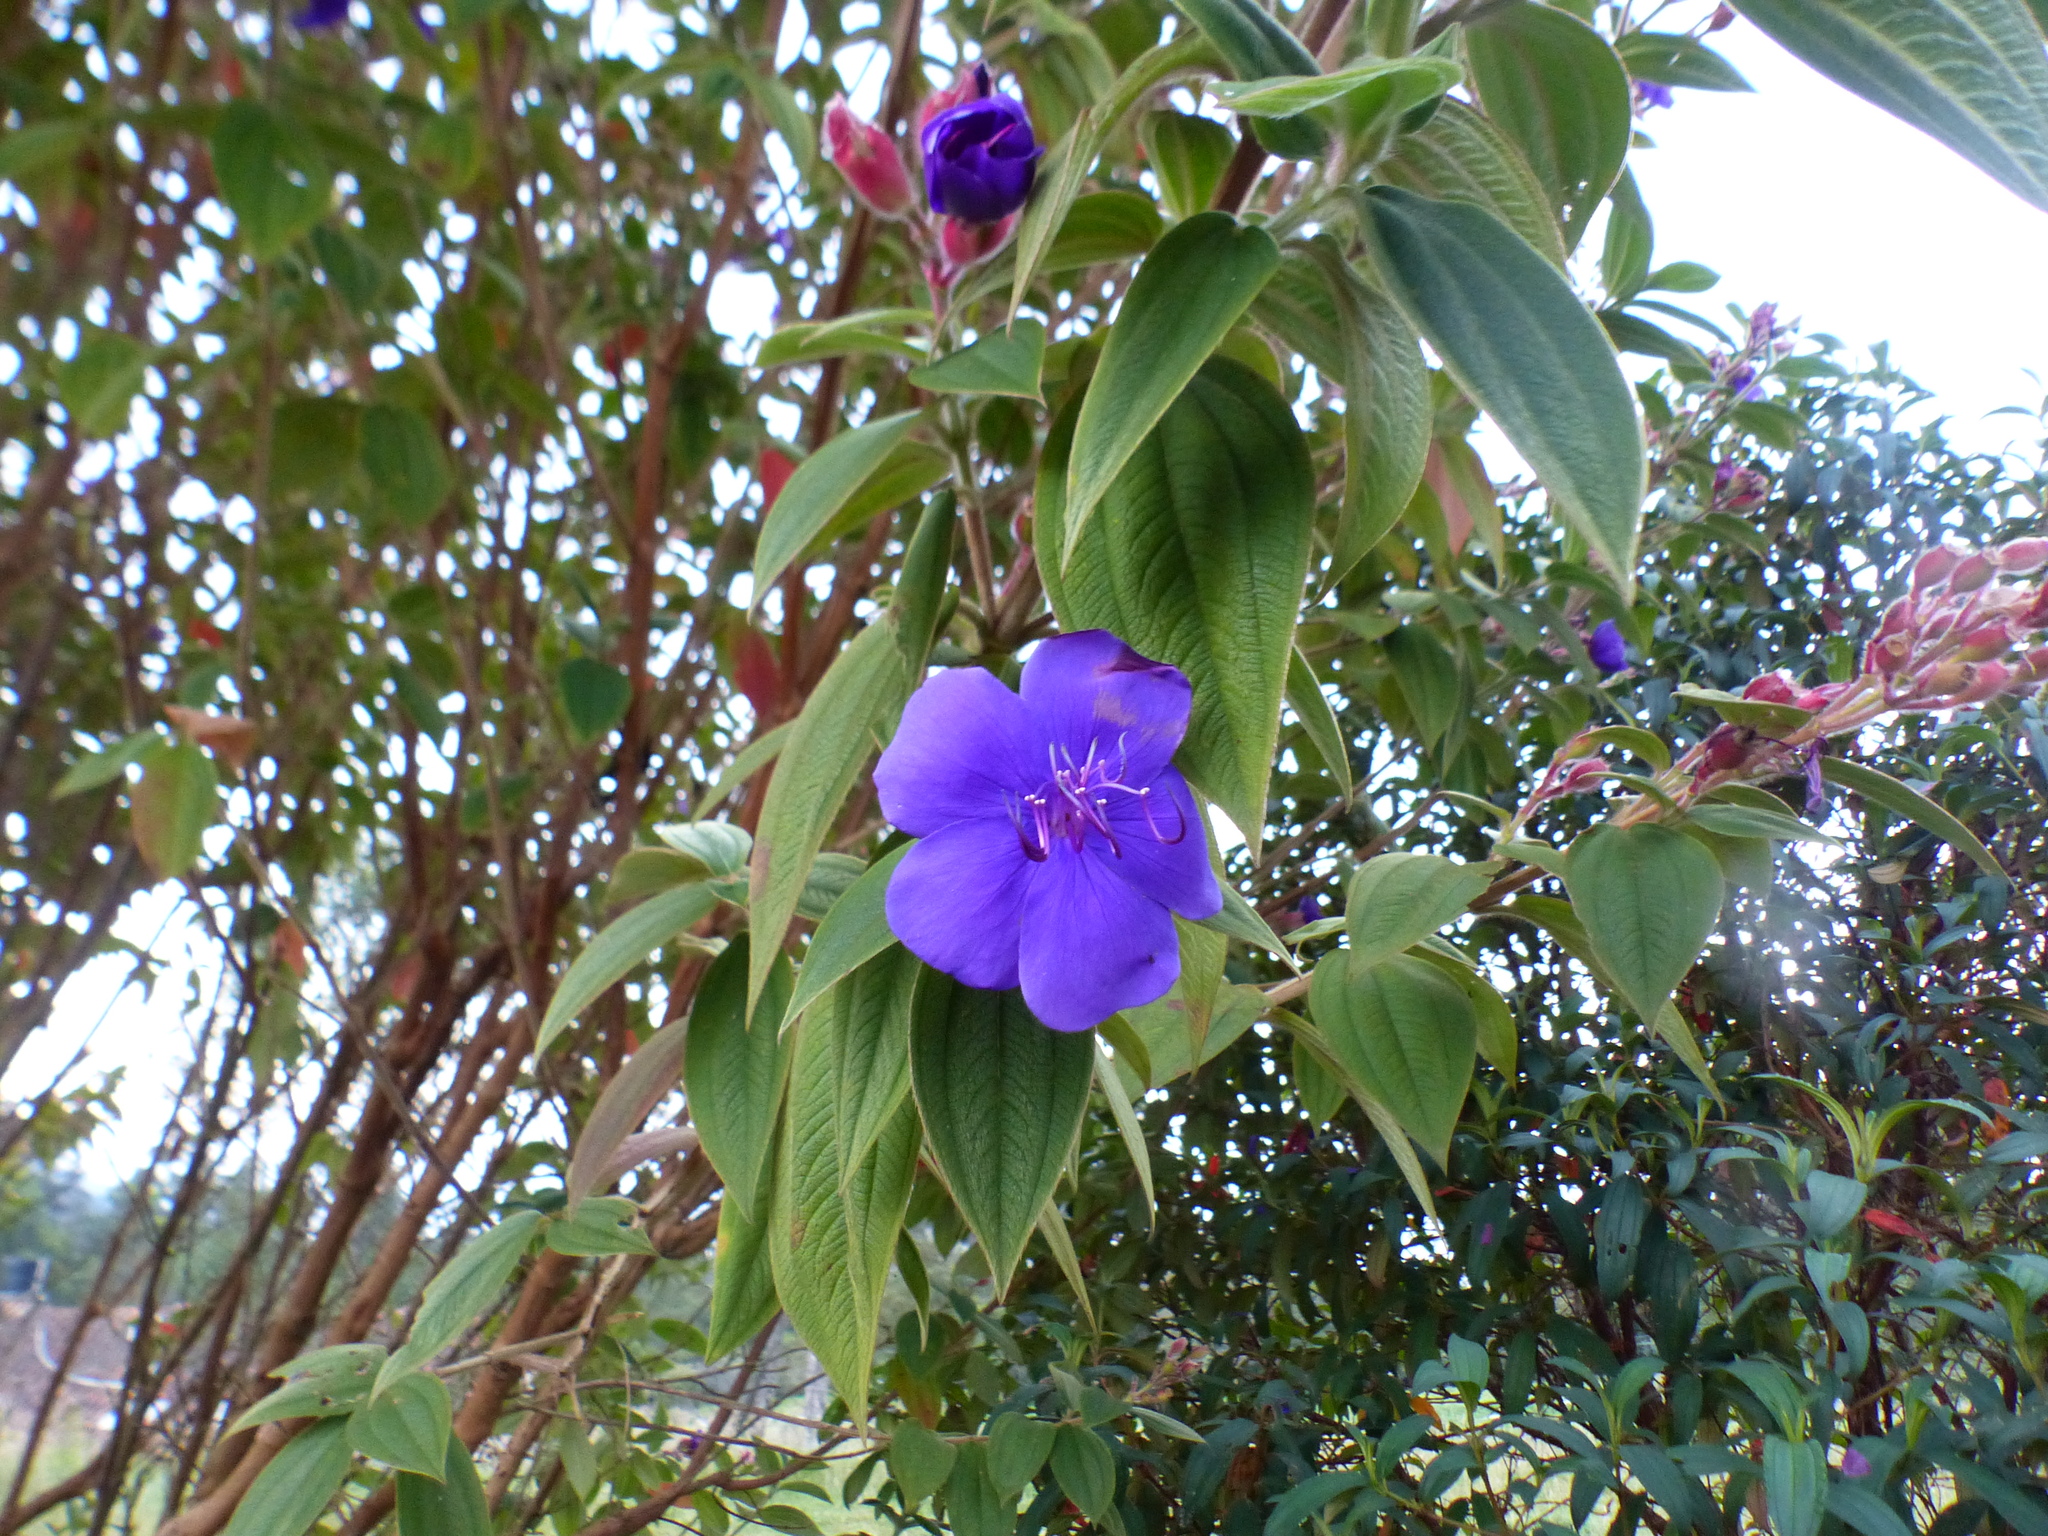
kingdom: Plantae
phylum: Tracheophyta
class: Magnoliopsida
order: Myrtales
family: Melastomataceae
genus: Pleroma
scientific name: Pleroma urvilleanum
